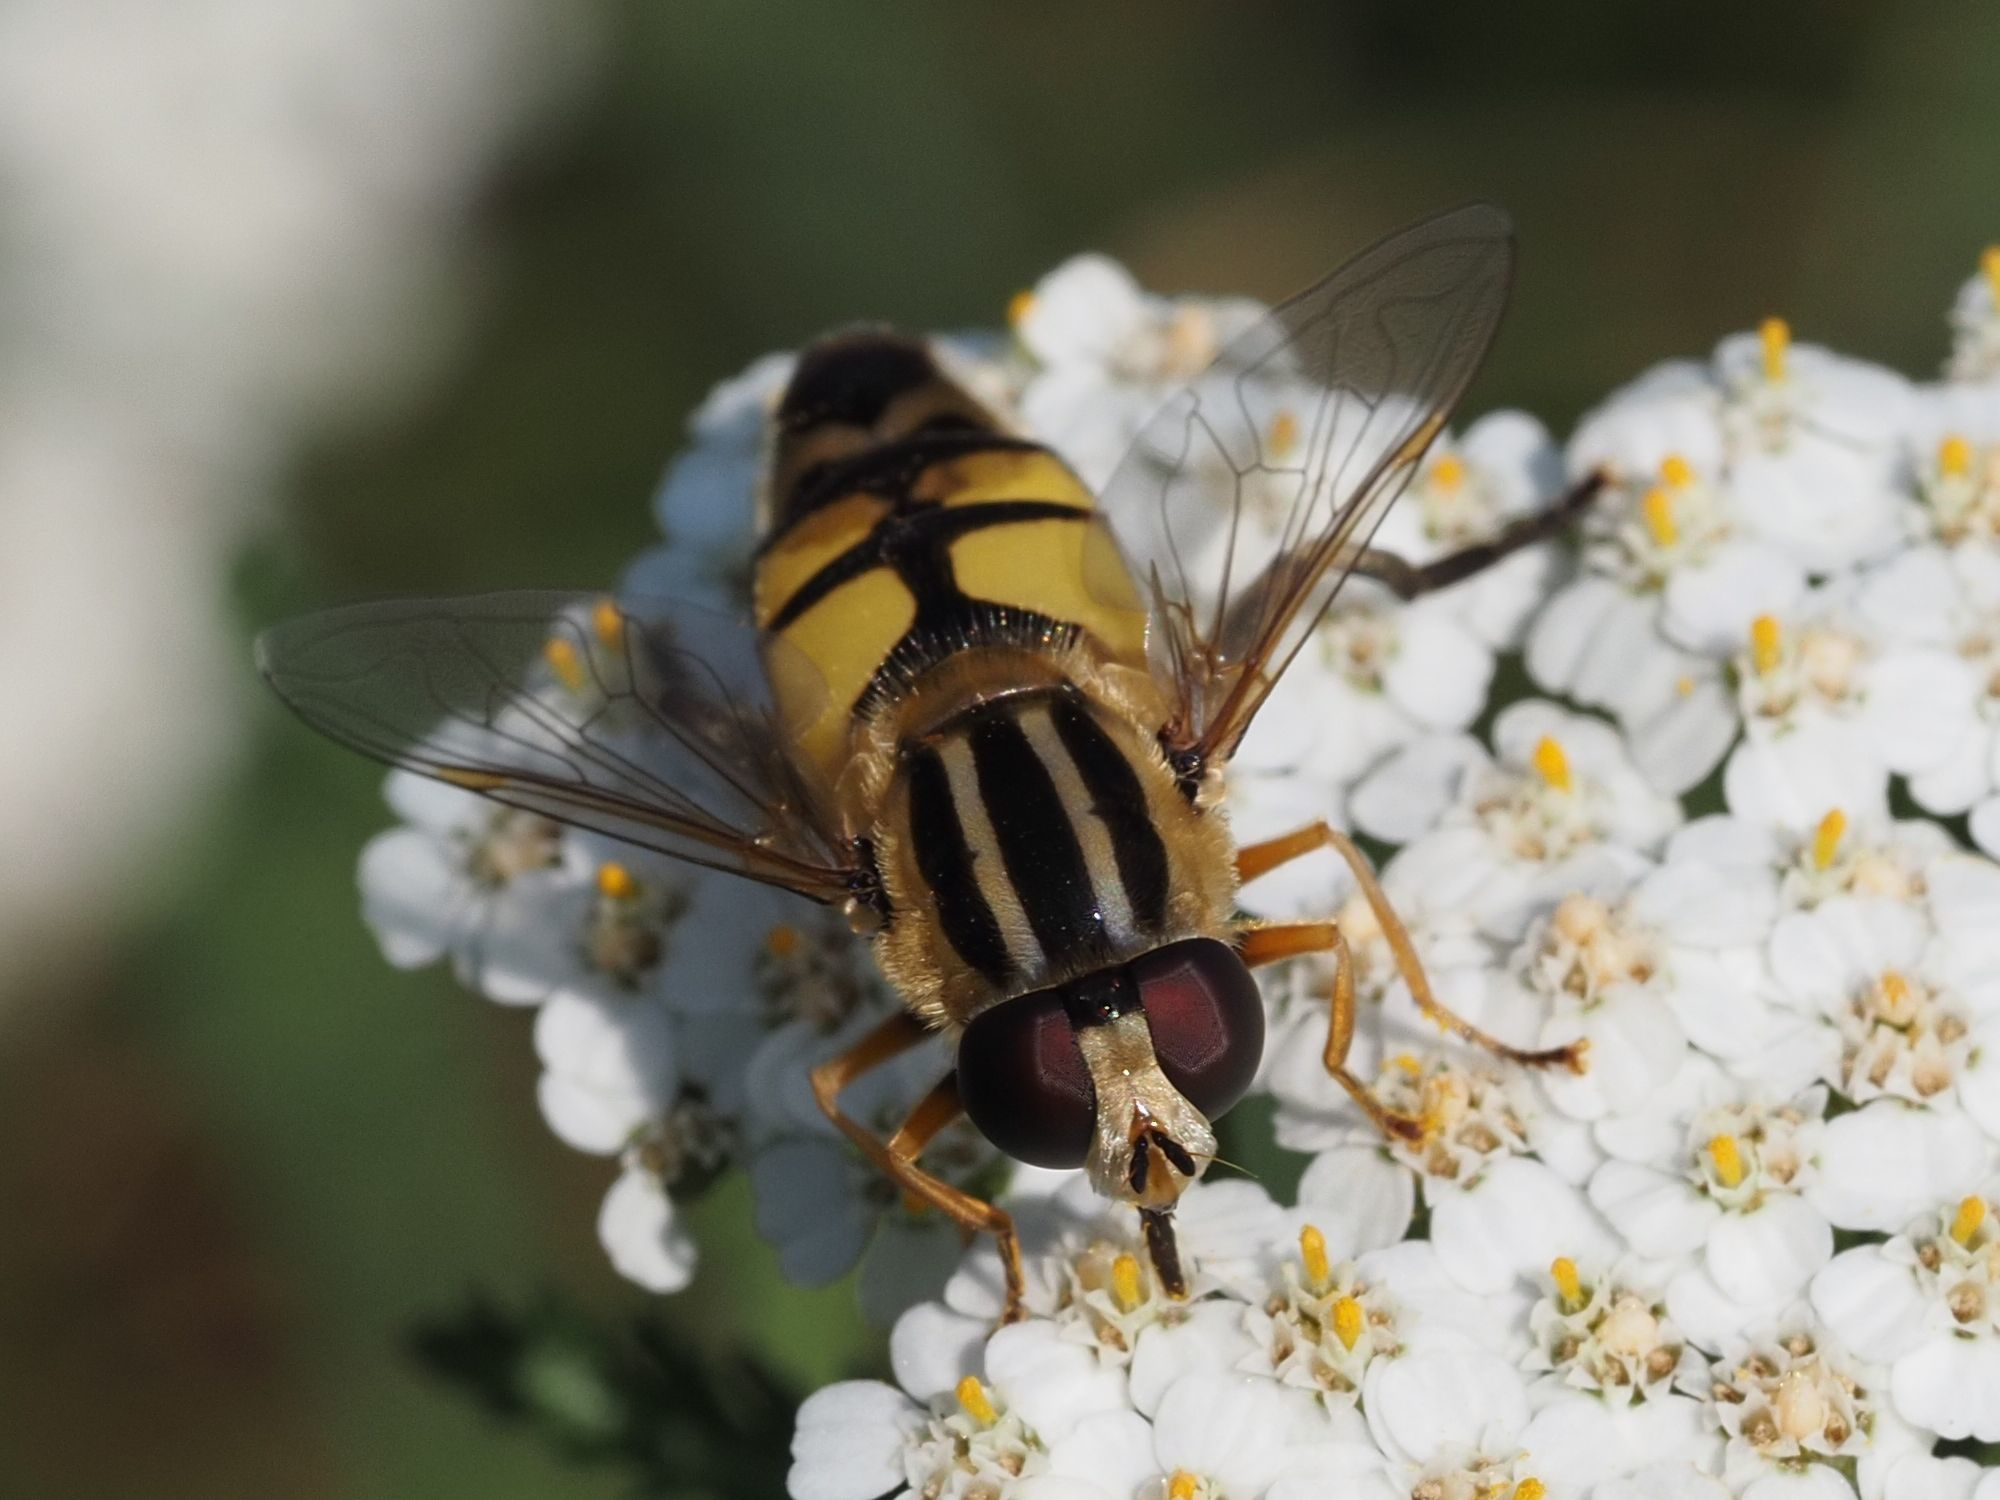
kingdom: Animalia
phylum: Arthropoda
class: Insecta
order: Diptera
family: Syrphidae
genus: Helophilus
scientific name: Helophilus trivittatus
